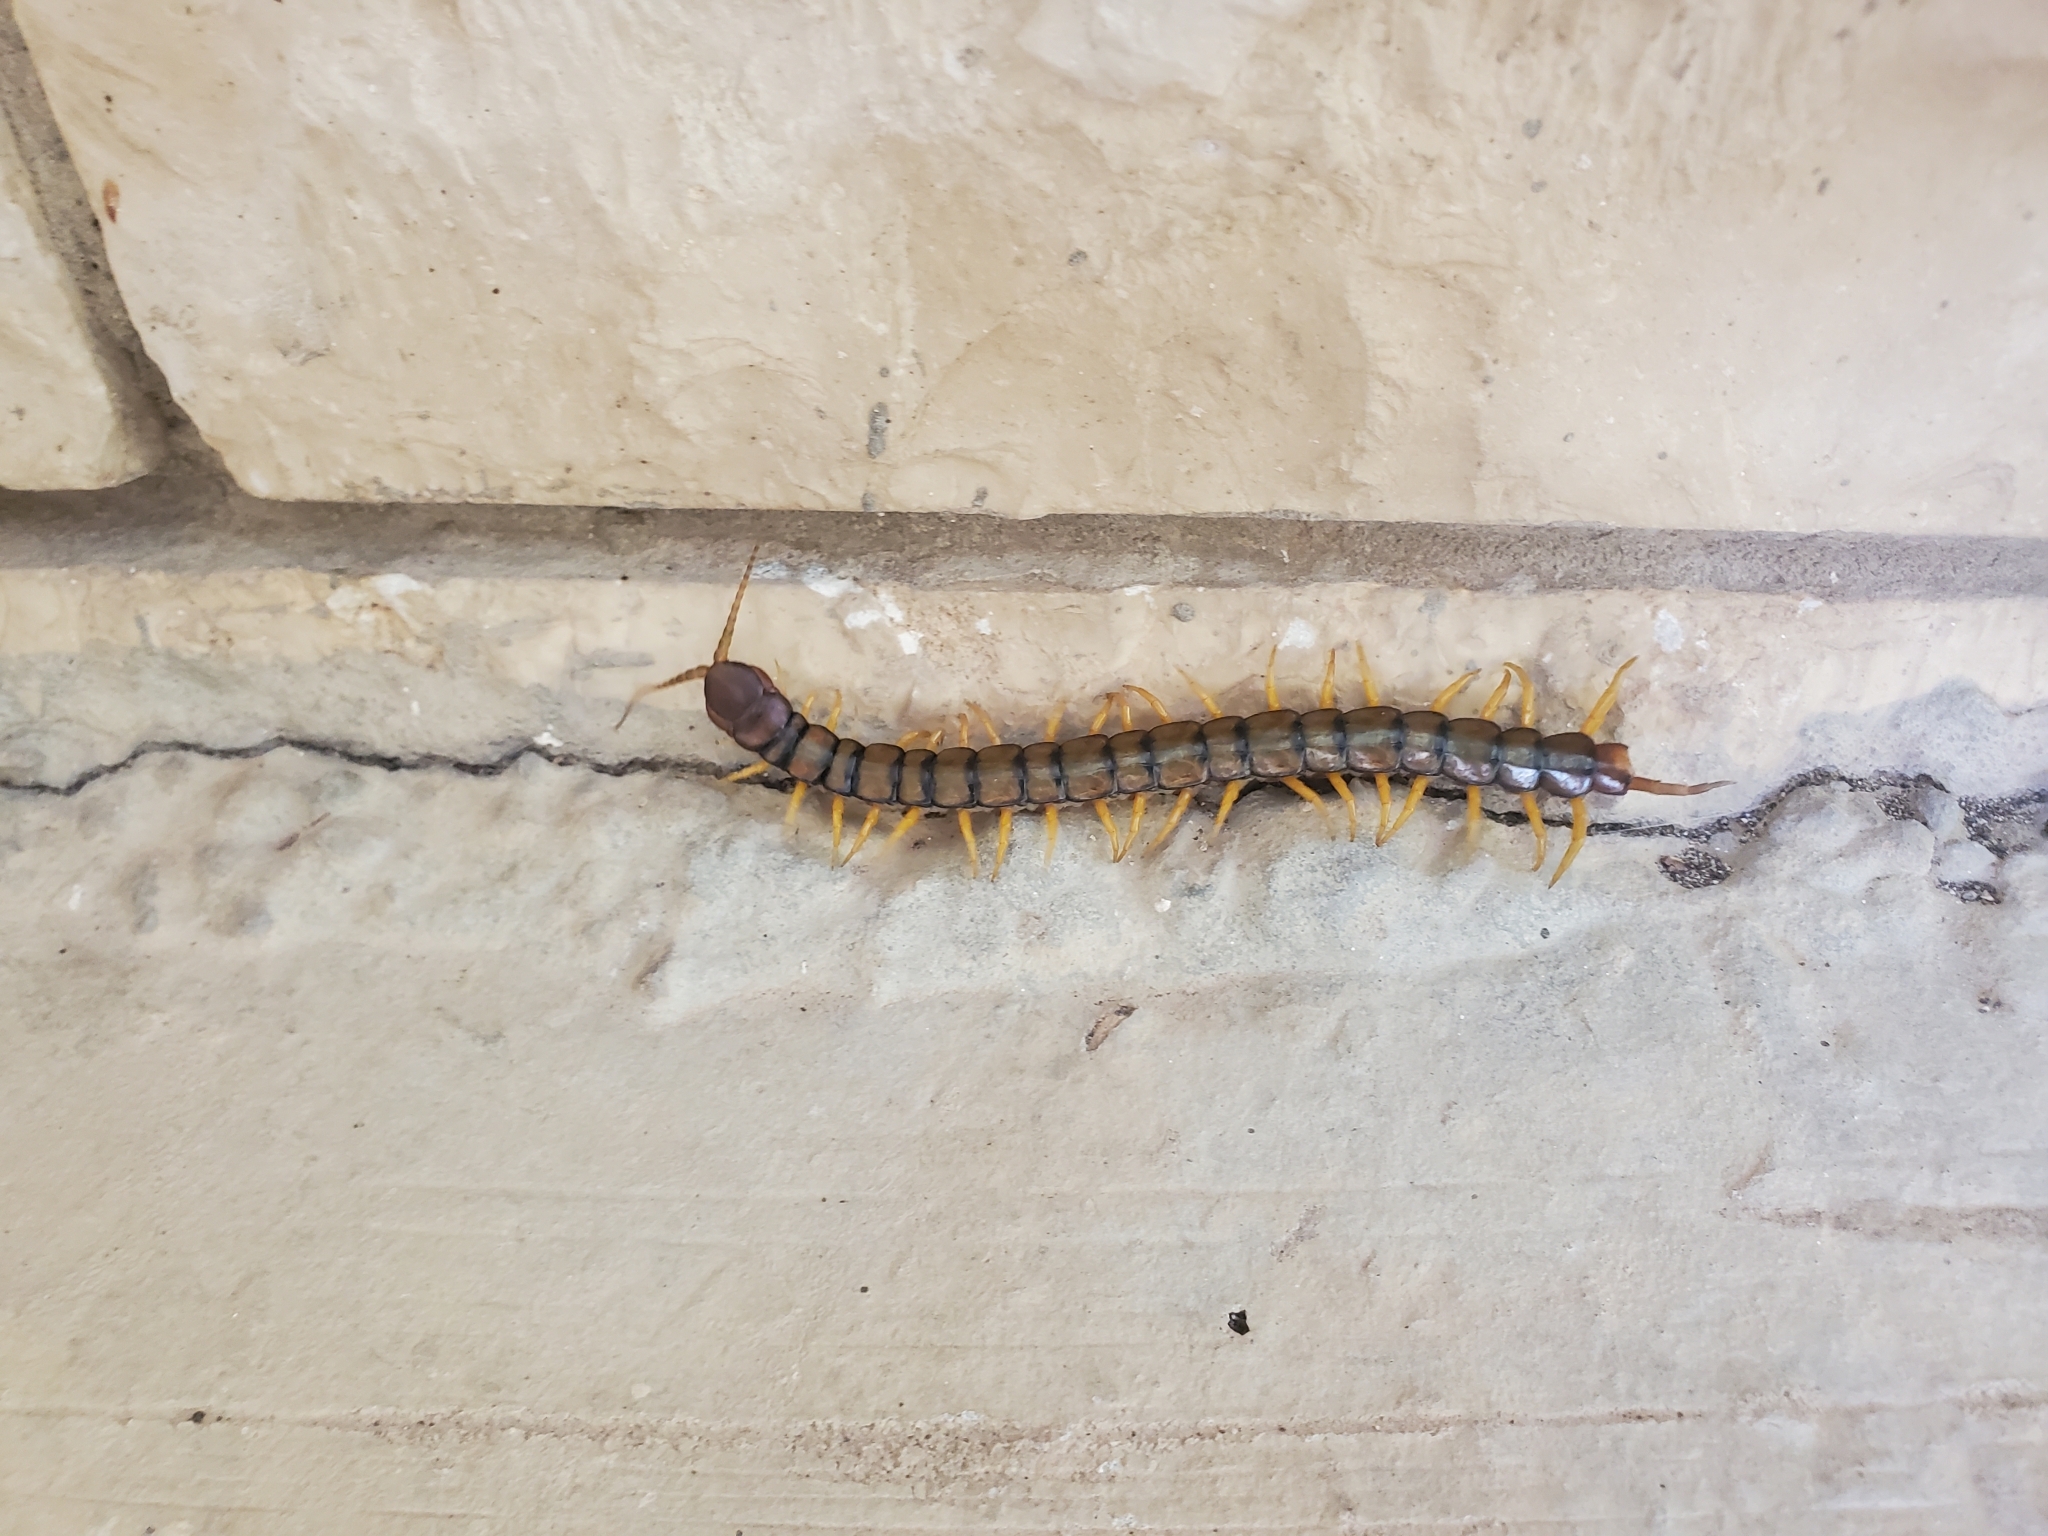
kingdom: Animalia
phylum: Arthropoda
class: Chilopoda
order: Scolopendromorpha
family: Scolopendridae
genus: Scolopendra
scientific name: Scolopendra cingulata
